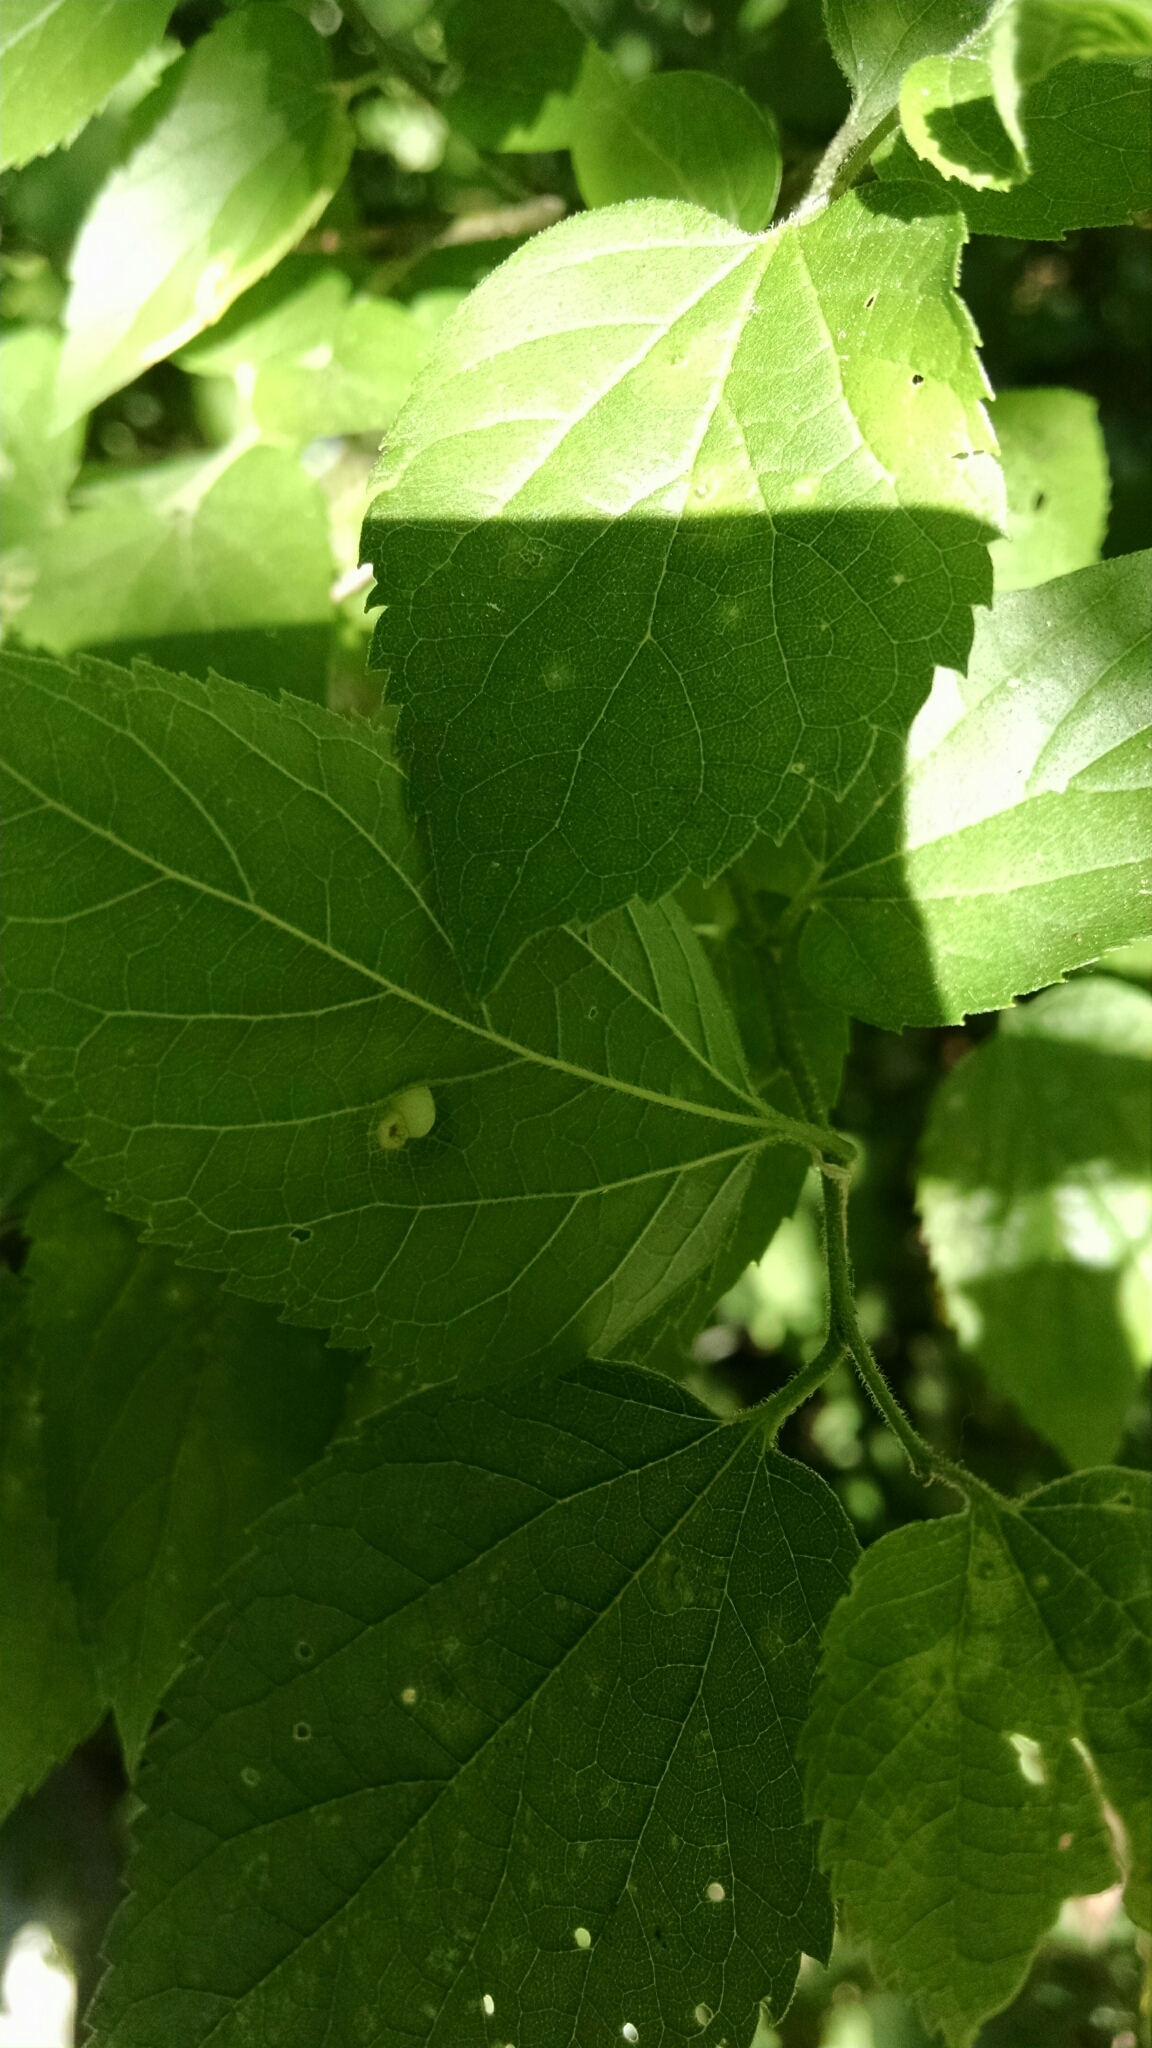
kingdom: Animalia
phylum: Arthropoda
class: Insecta
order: Hemiptera
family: Aphalaridae
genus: Pachypsylla
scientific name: Pachypsylla celtidismamma
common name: Hackberry nipplegall psyllid
